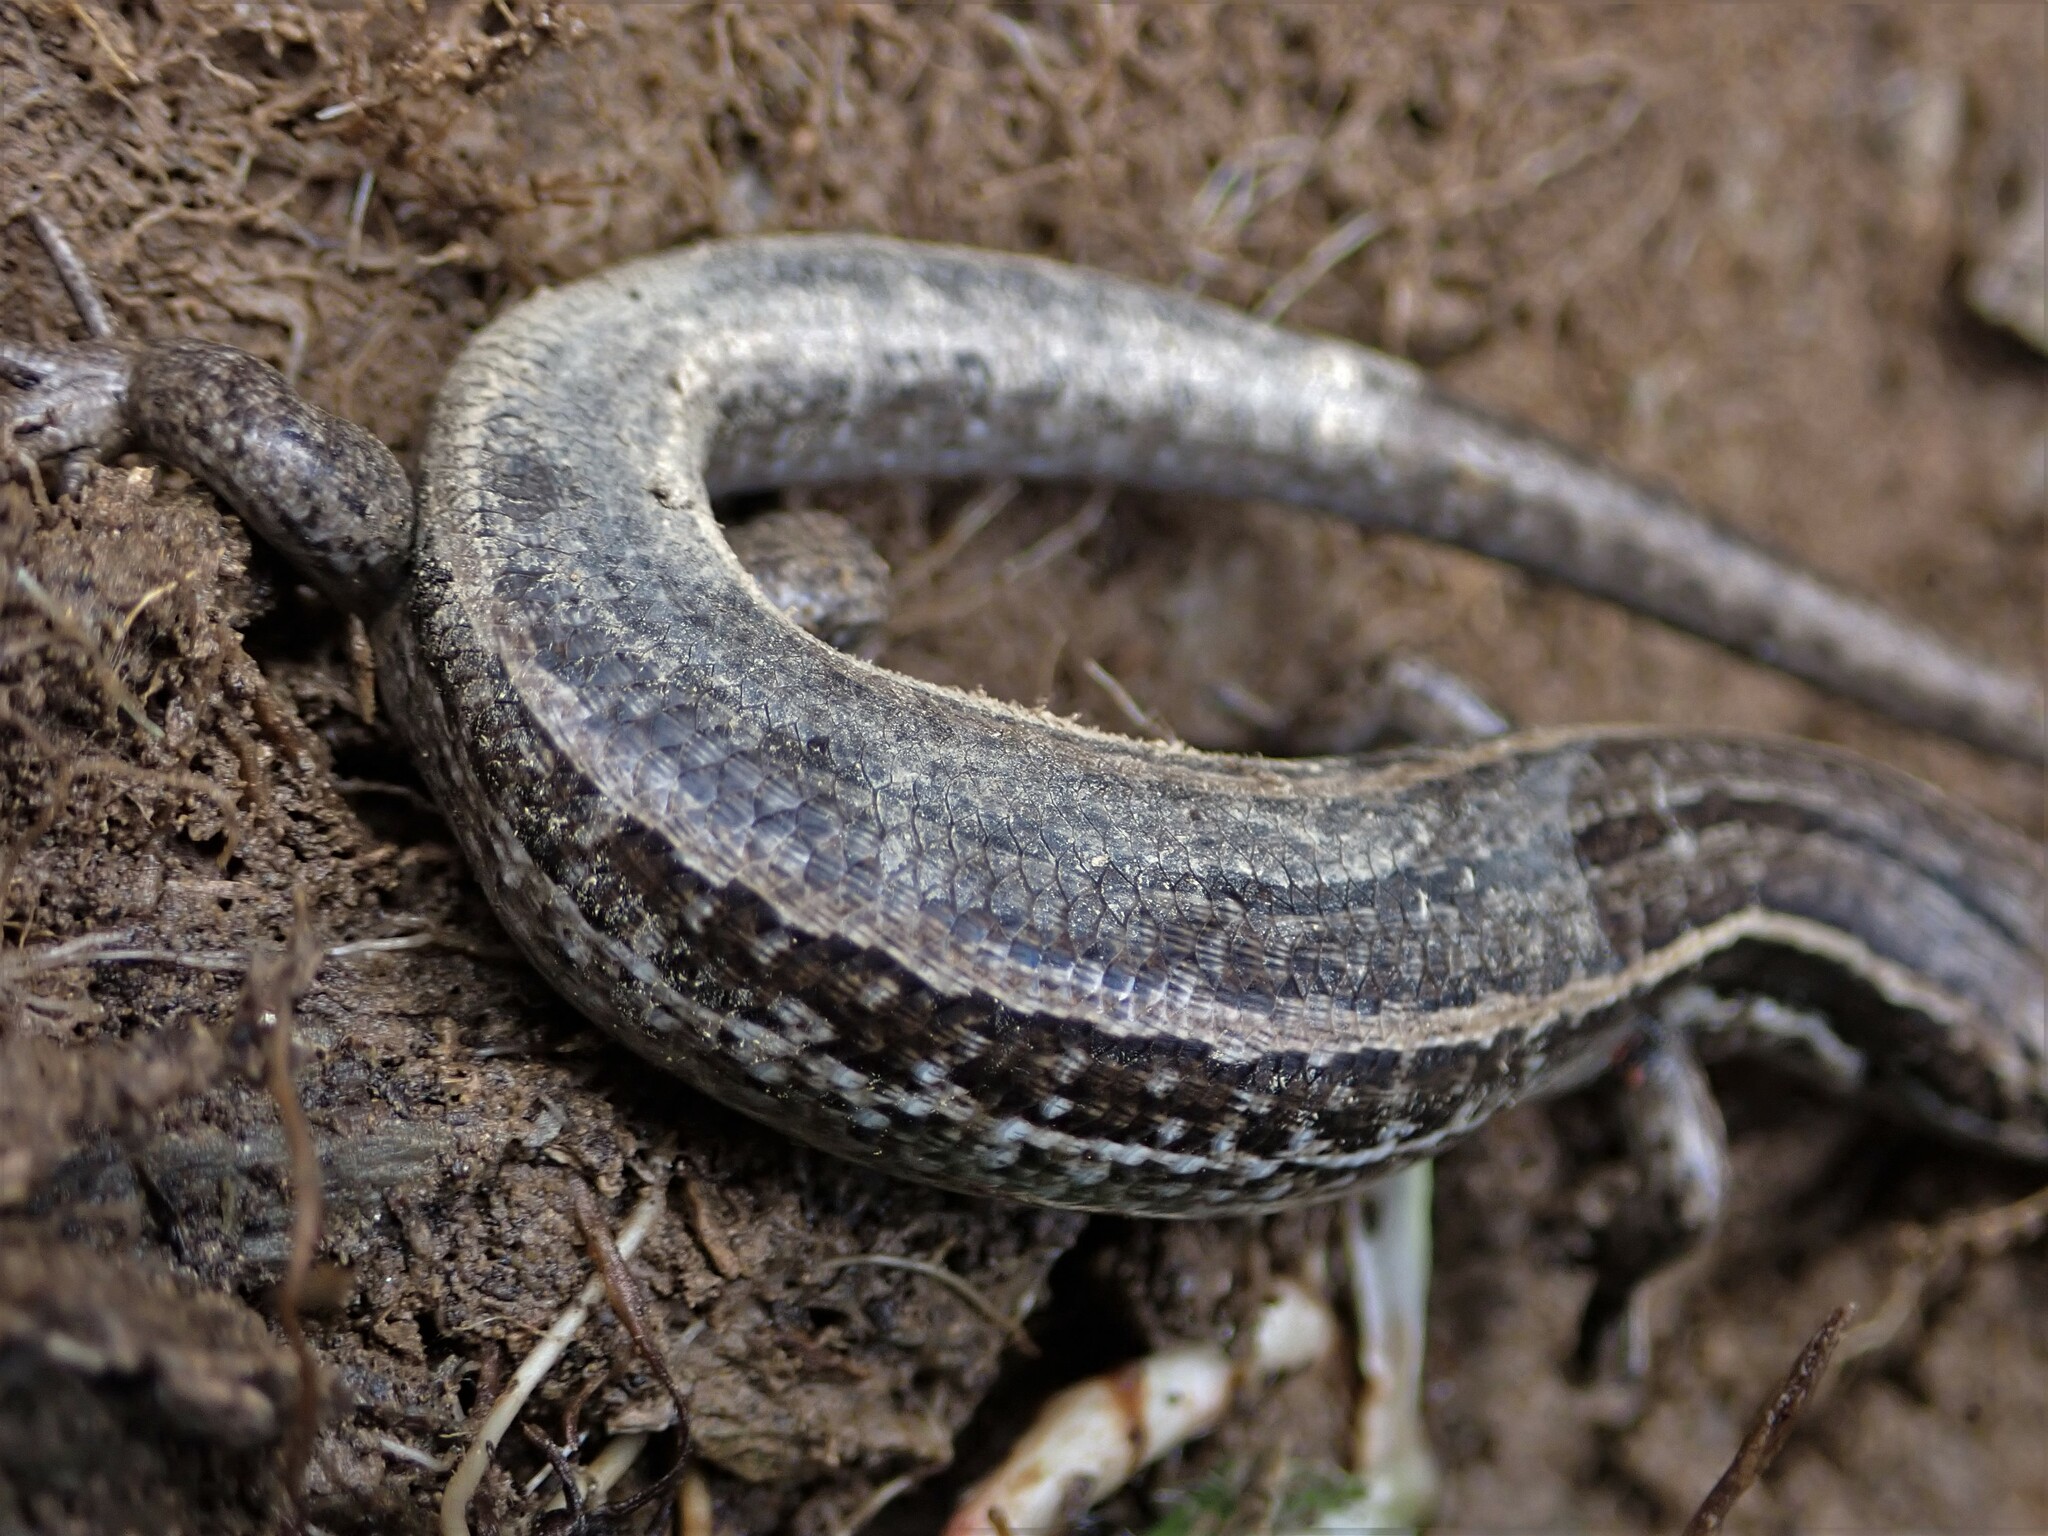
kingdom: Animalia
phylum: Chordata
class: Squamata
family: Scincidae
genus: Oligosoma
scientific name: Oligosoma maccanni
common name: Mccann’s skink
